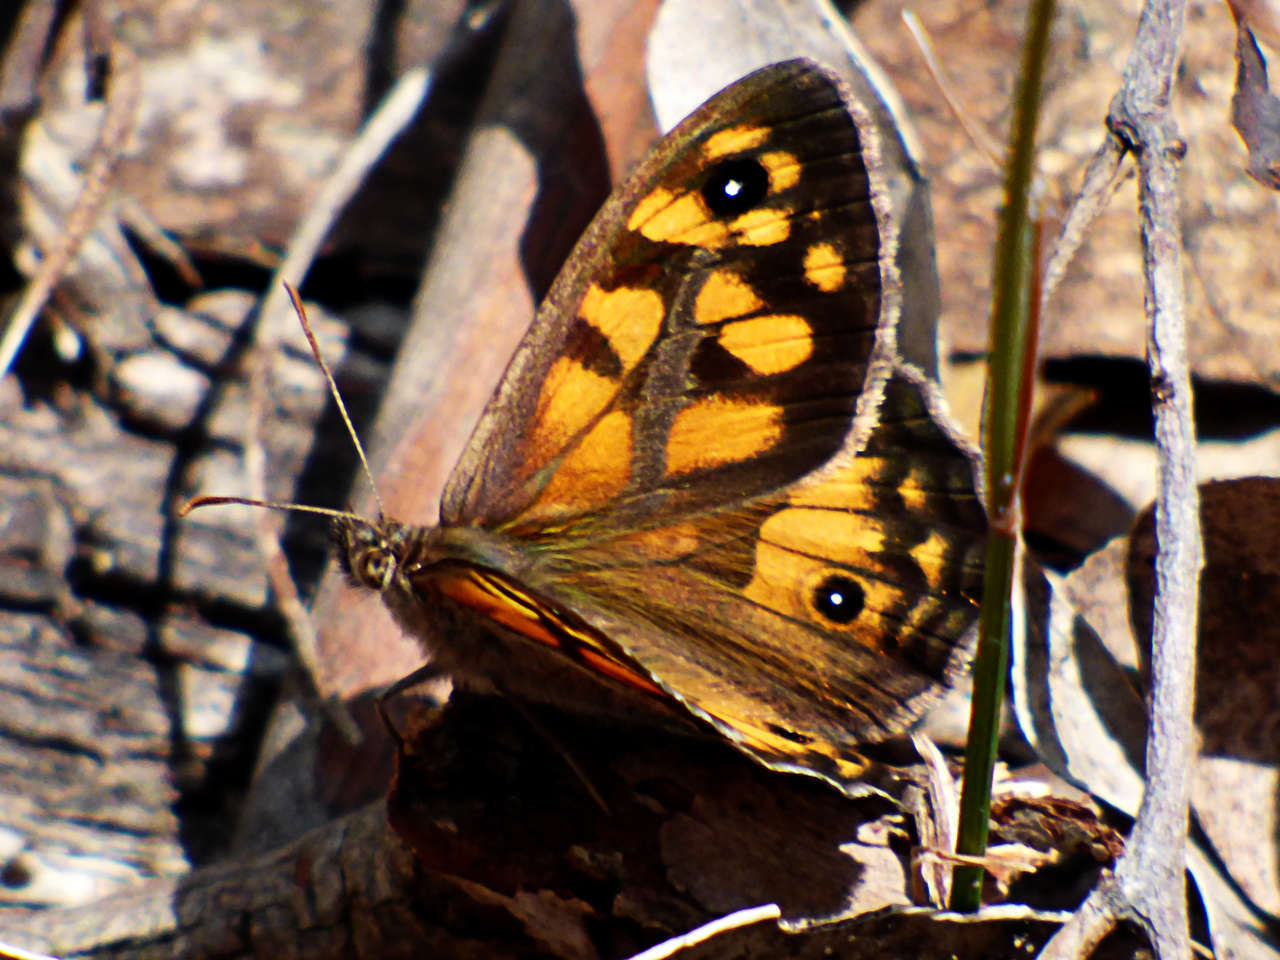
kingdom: Animalia
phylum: Arthropoda
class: Insecta
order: Lepidoptera
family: Nymphalidae
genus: Geitoneura
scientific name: Geitoneura klugii
